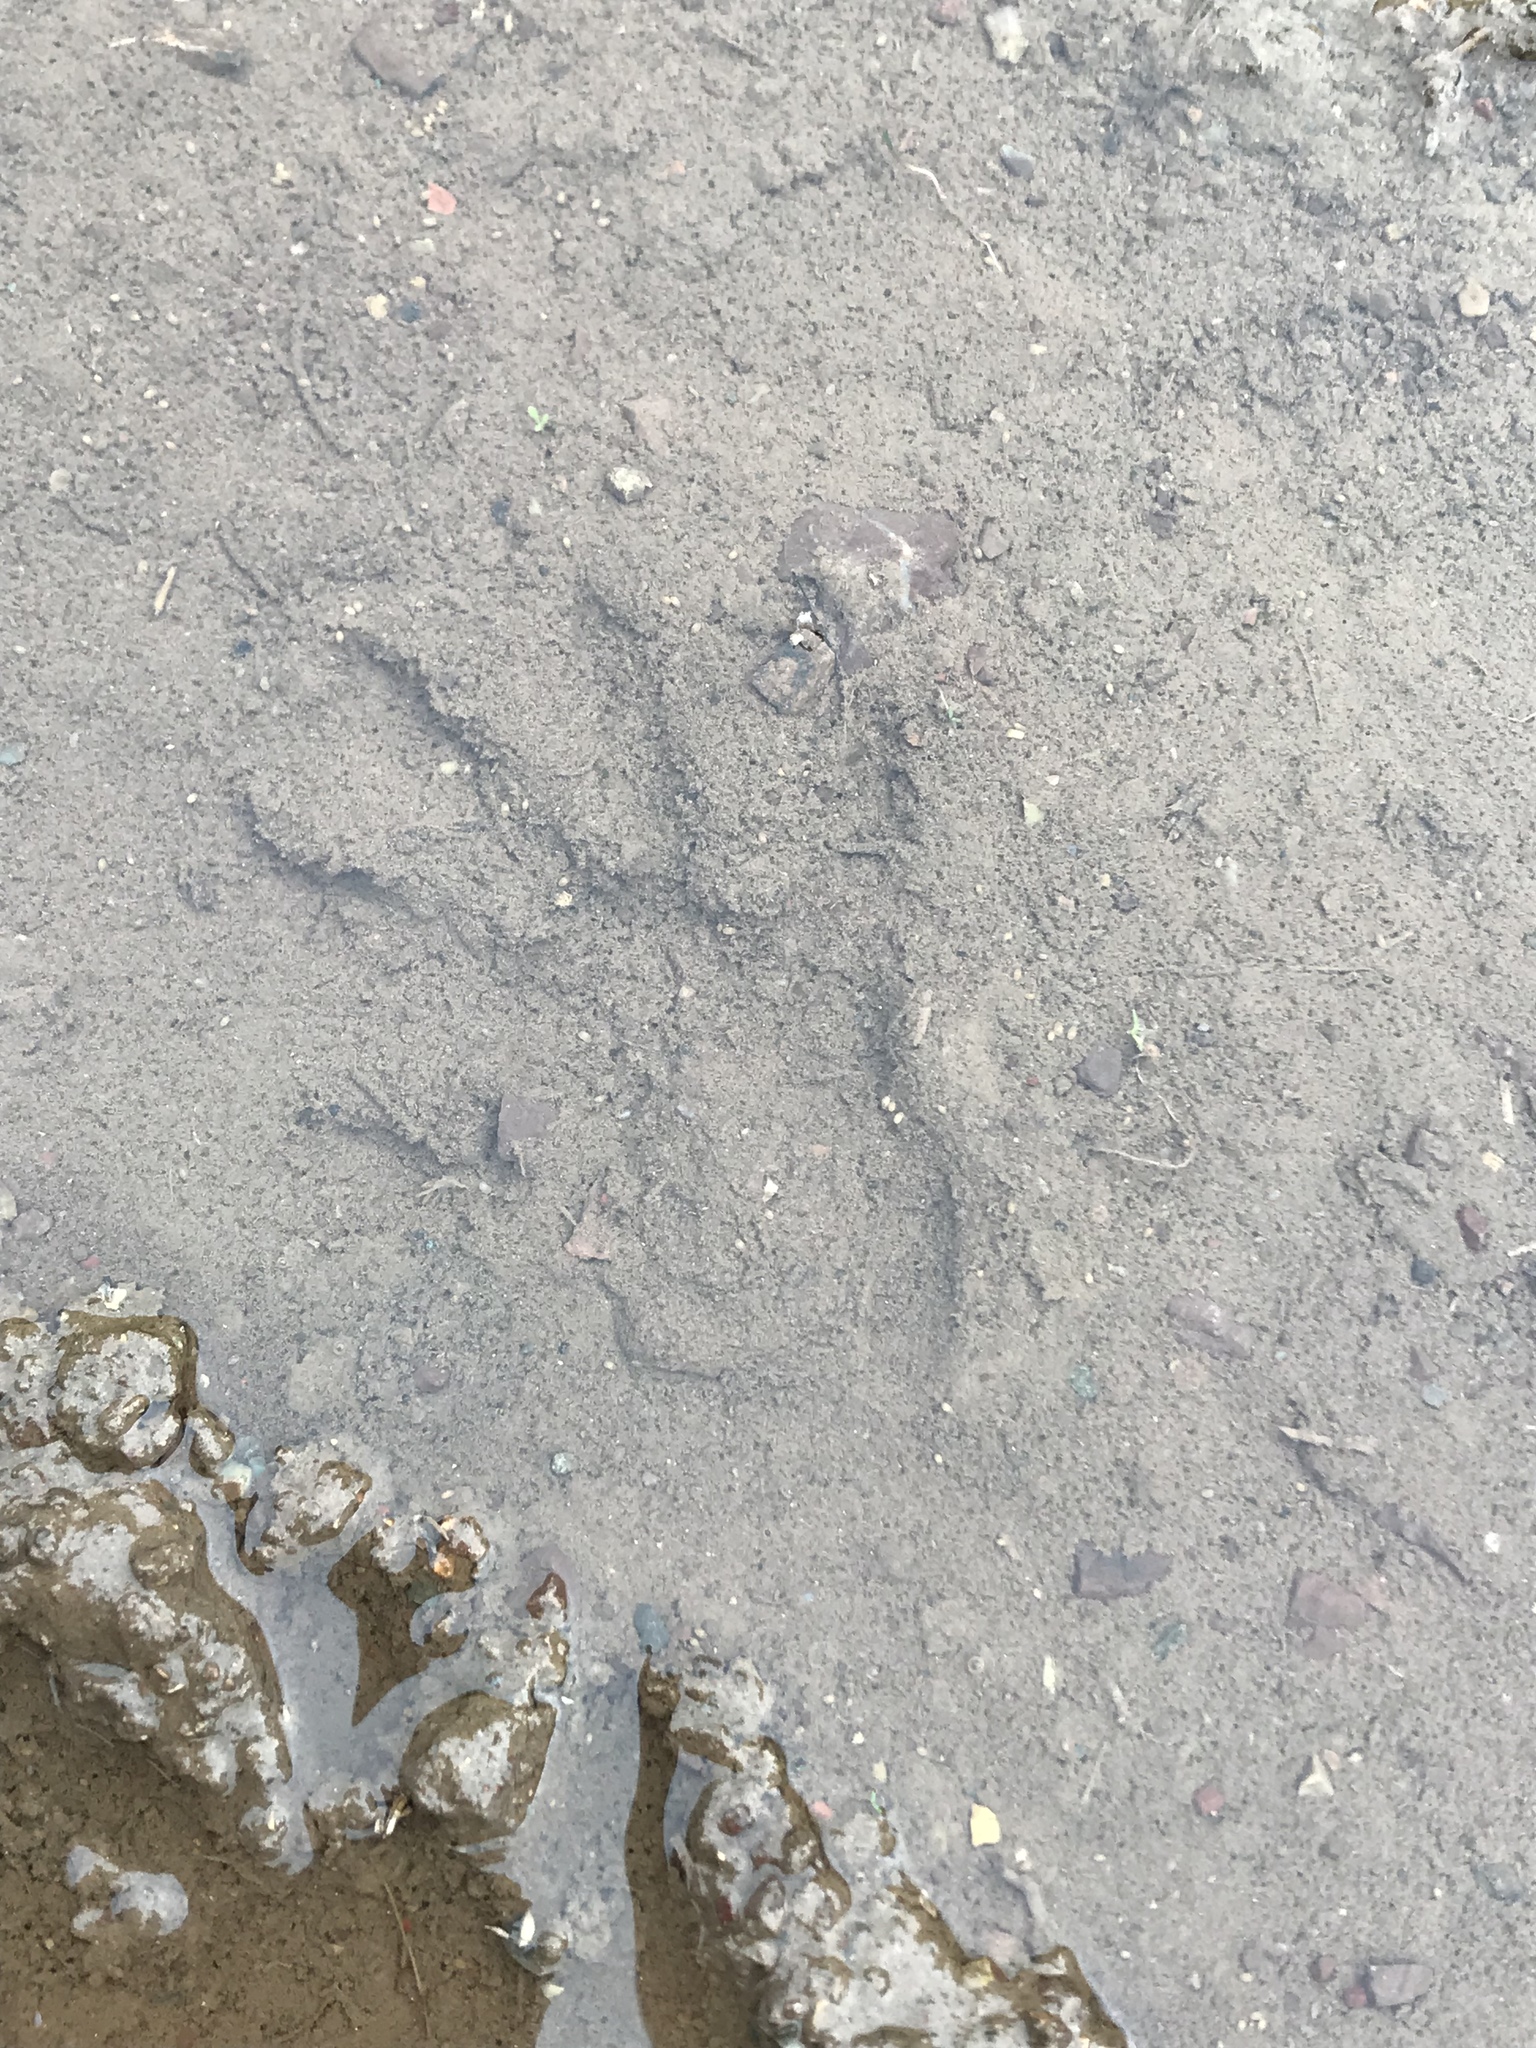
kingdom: Animalia
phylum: Chordata
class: Mammalia
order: Carnivora
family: Procyonidae
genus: Procyon
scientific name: Procyon lotor
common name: Raccoon
